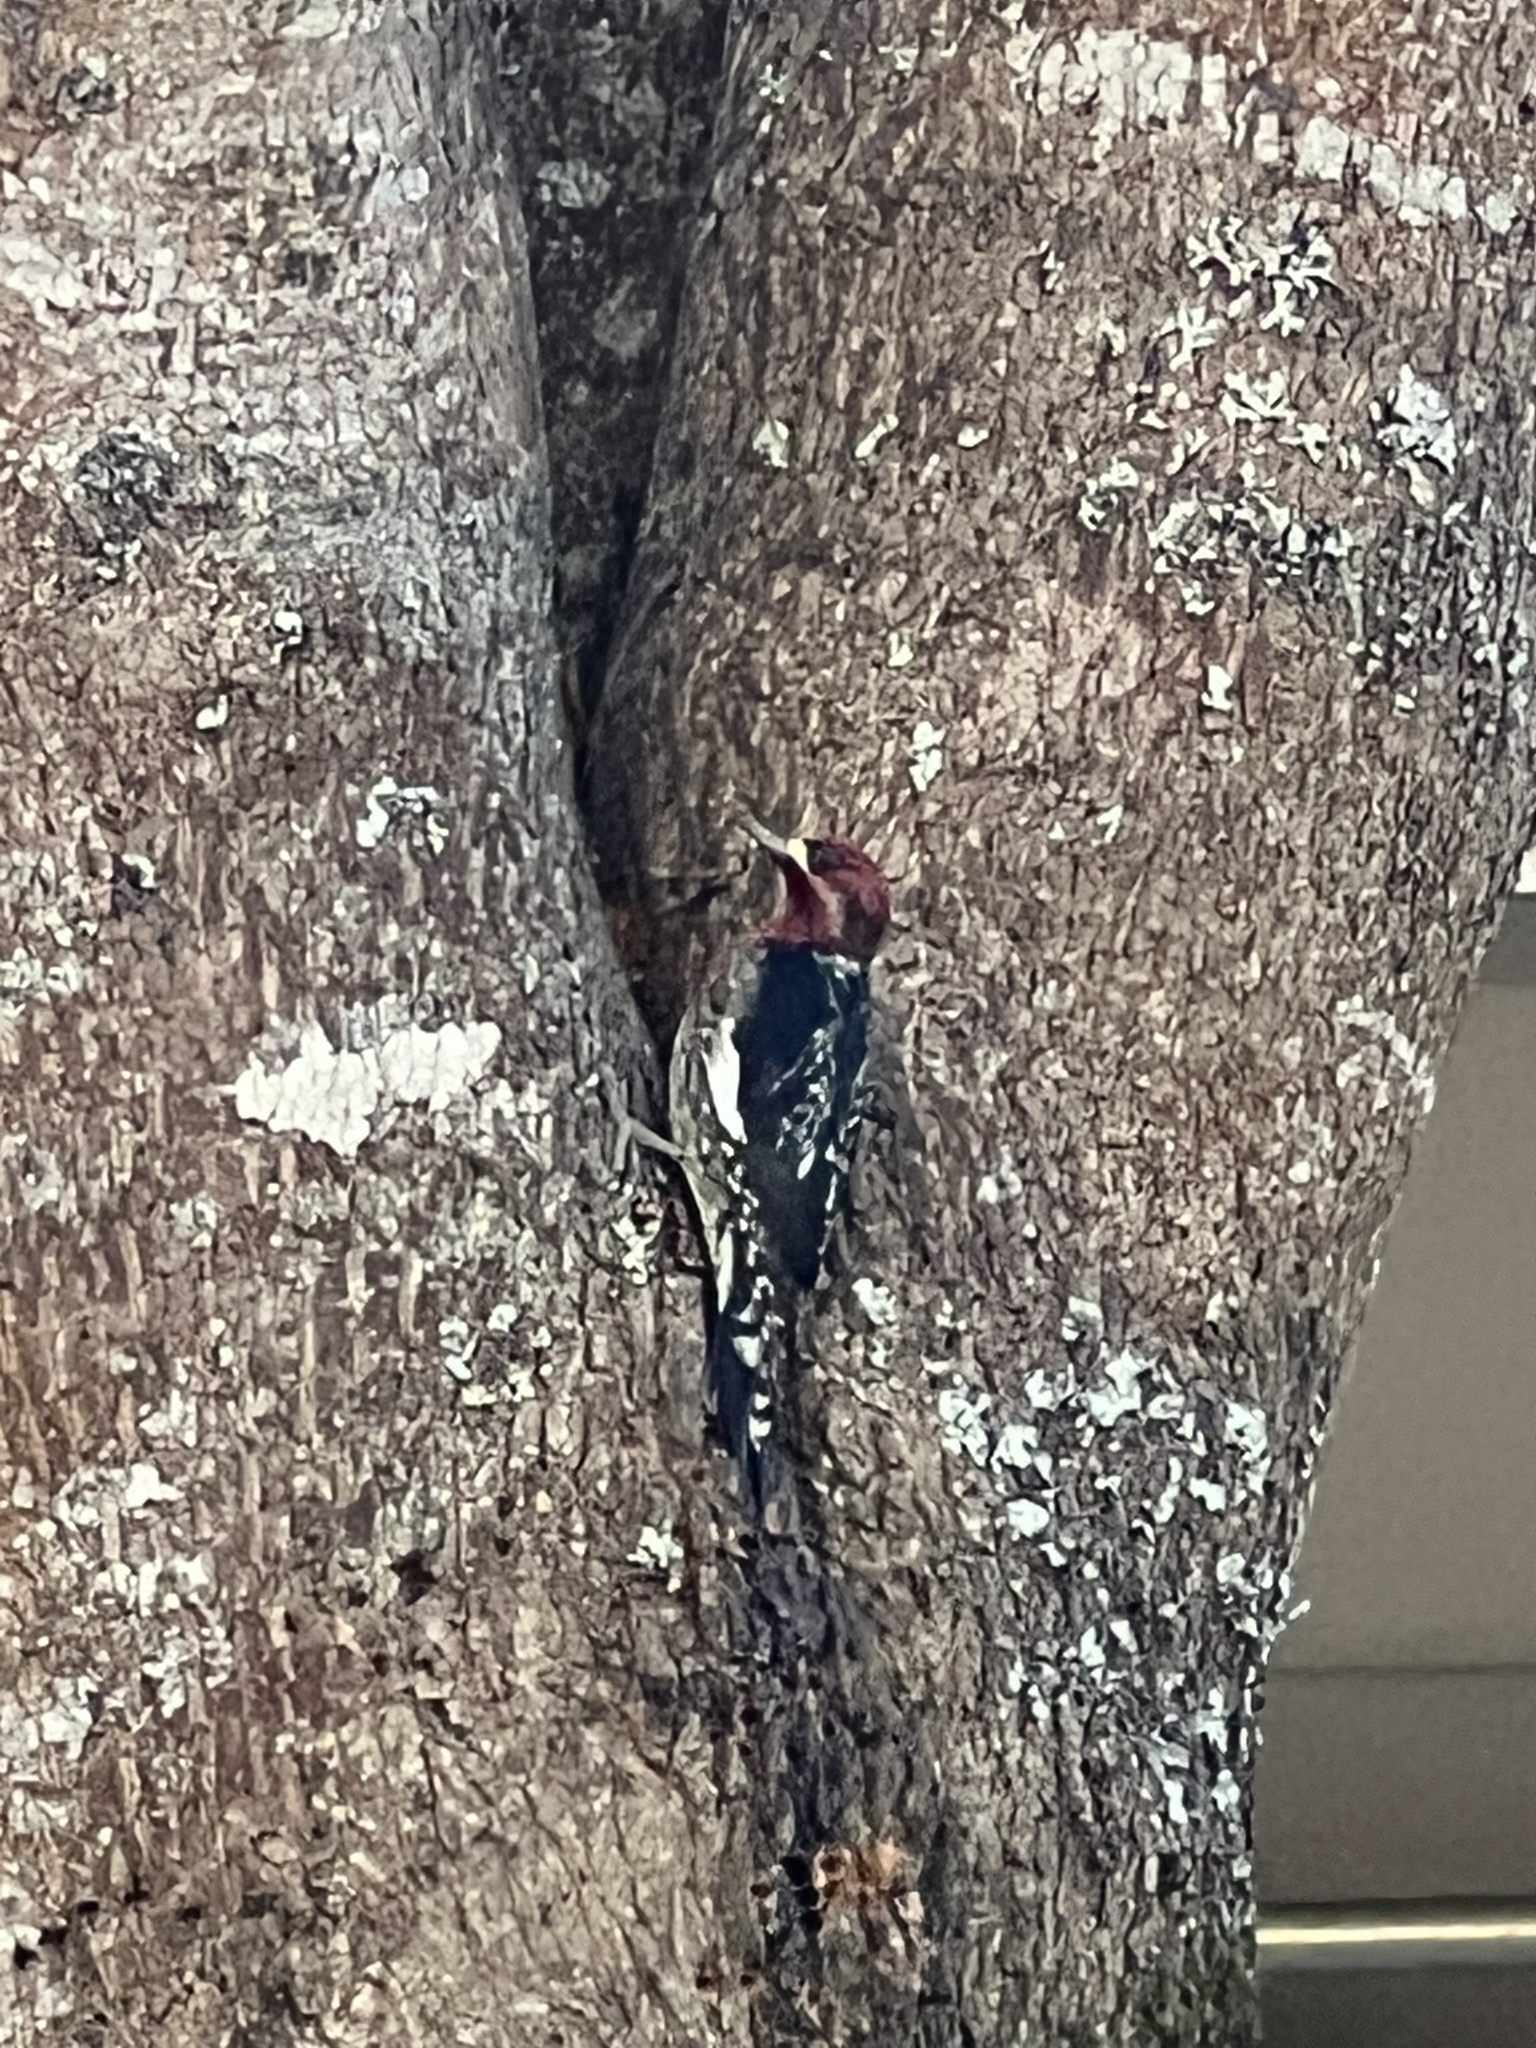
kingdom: Animalia
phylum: Chordata
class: Aves
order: Piciformes
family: Picidae
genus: Sphyrapicus
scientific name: Sphyrapicus ruber
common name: Red-breasted sapsucker
